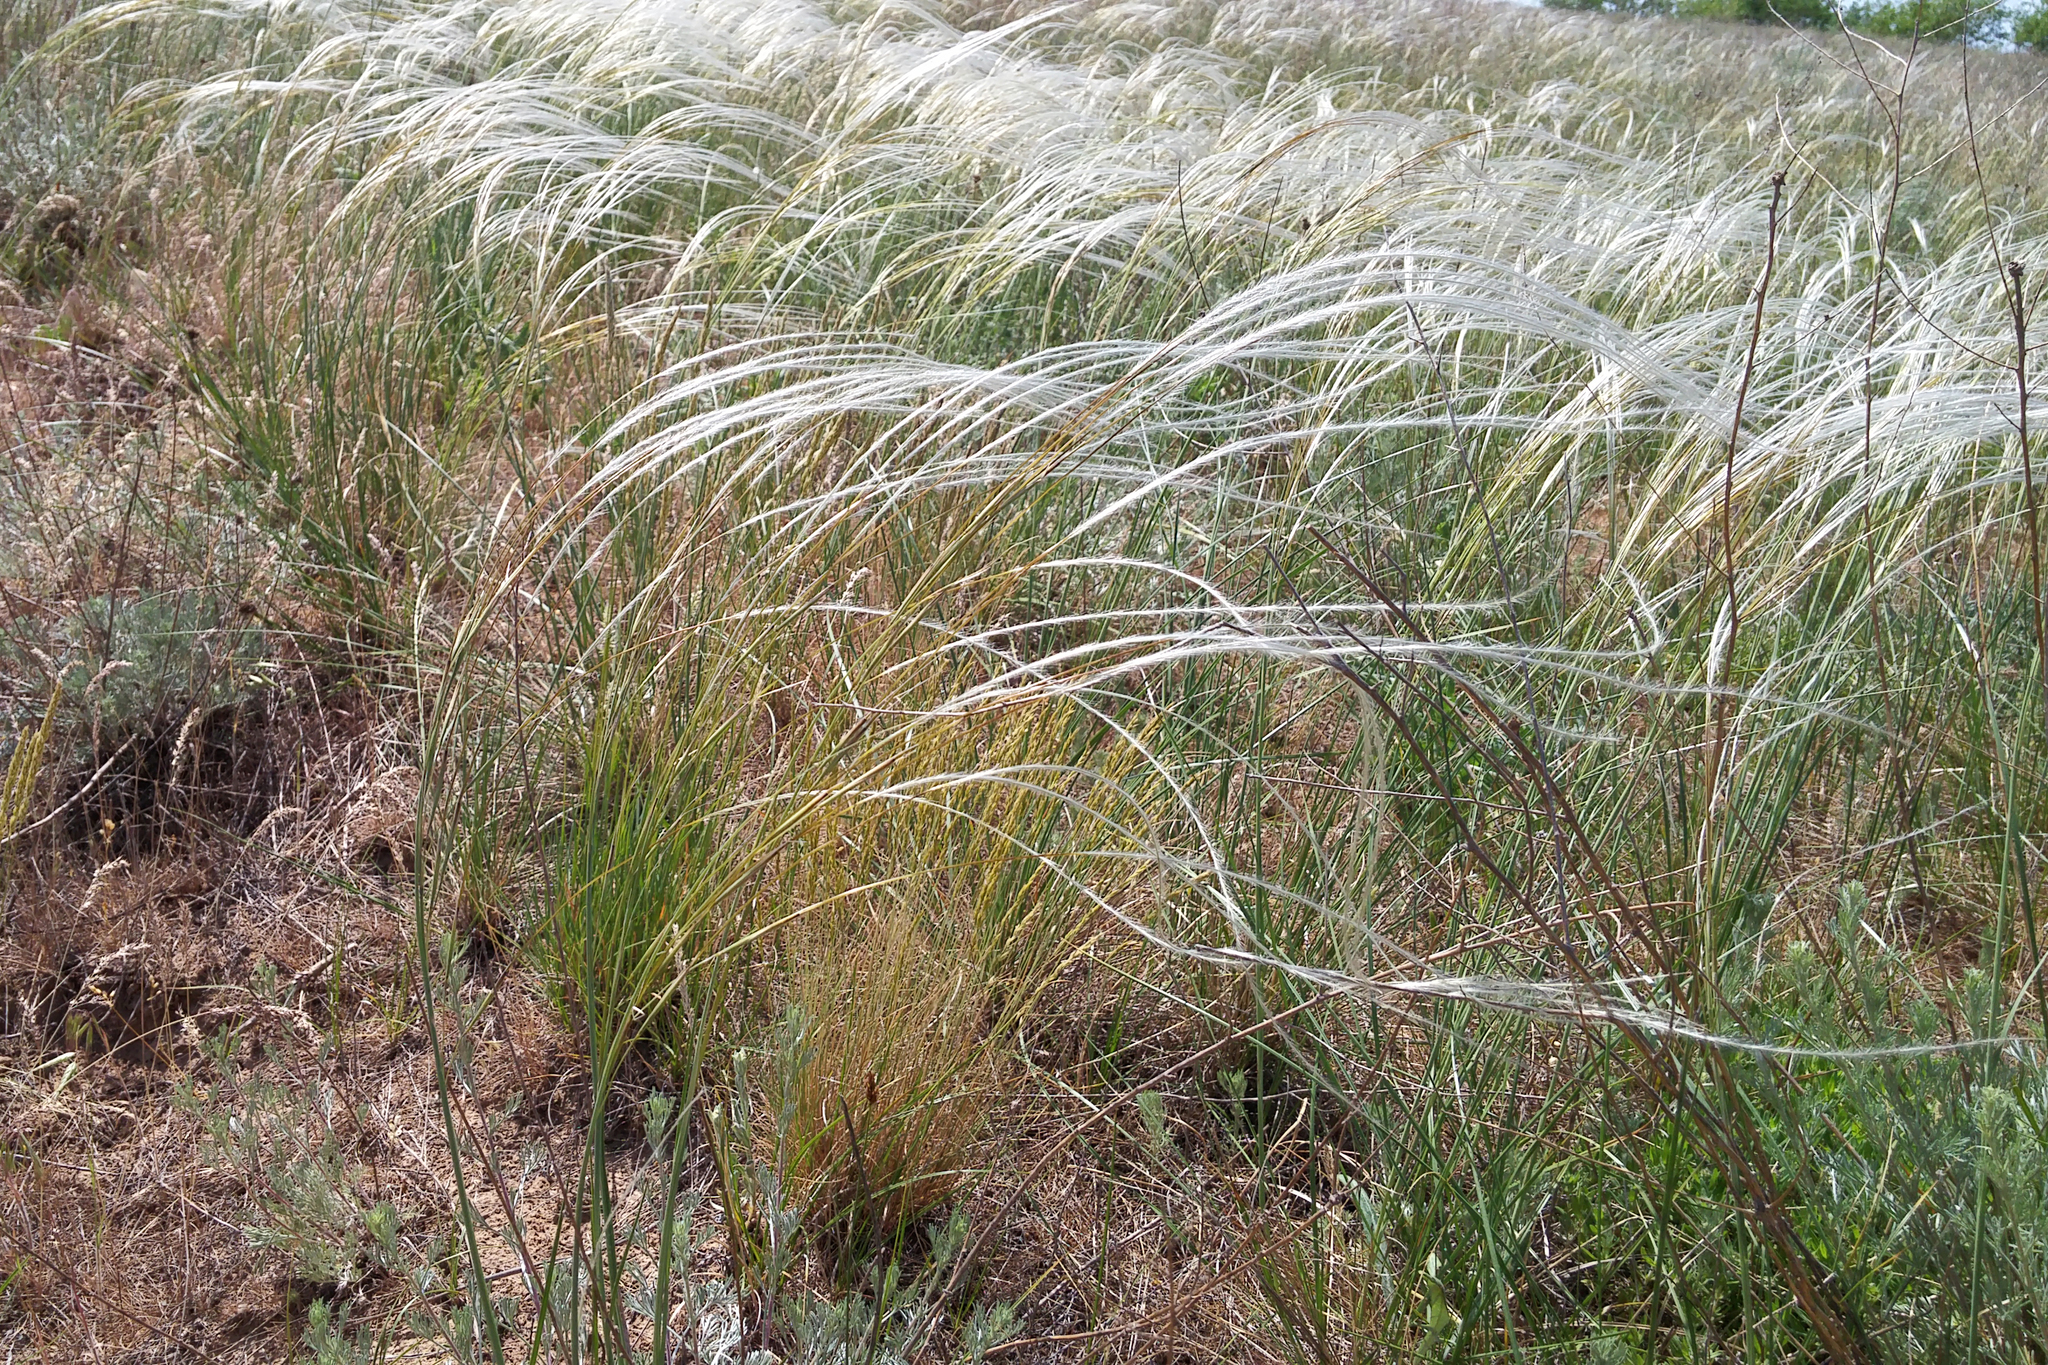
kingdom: Plantae
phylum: Tracheophyta
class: Liliopsida
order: Poales
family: Poaceae
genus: Stipa
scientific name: Stipa pulcherrima
